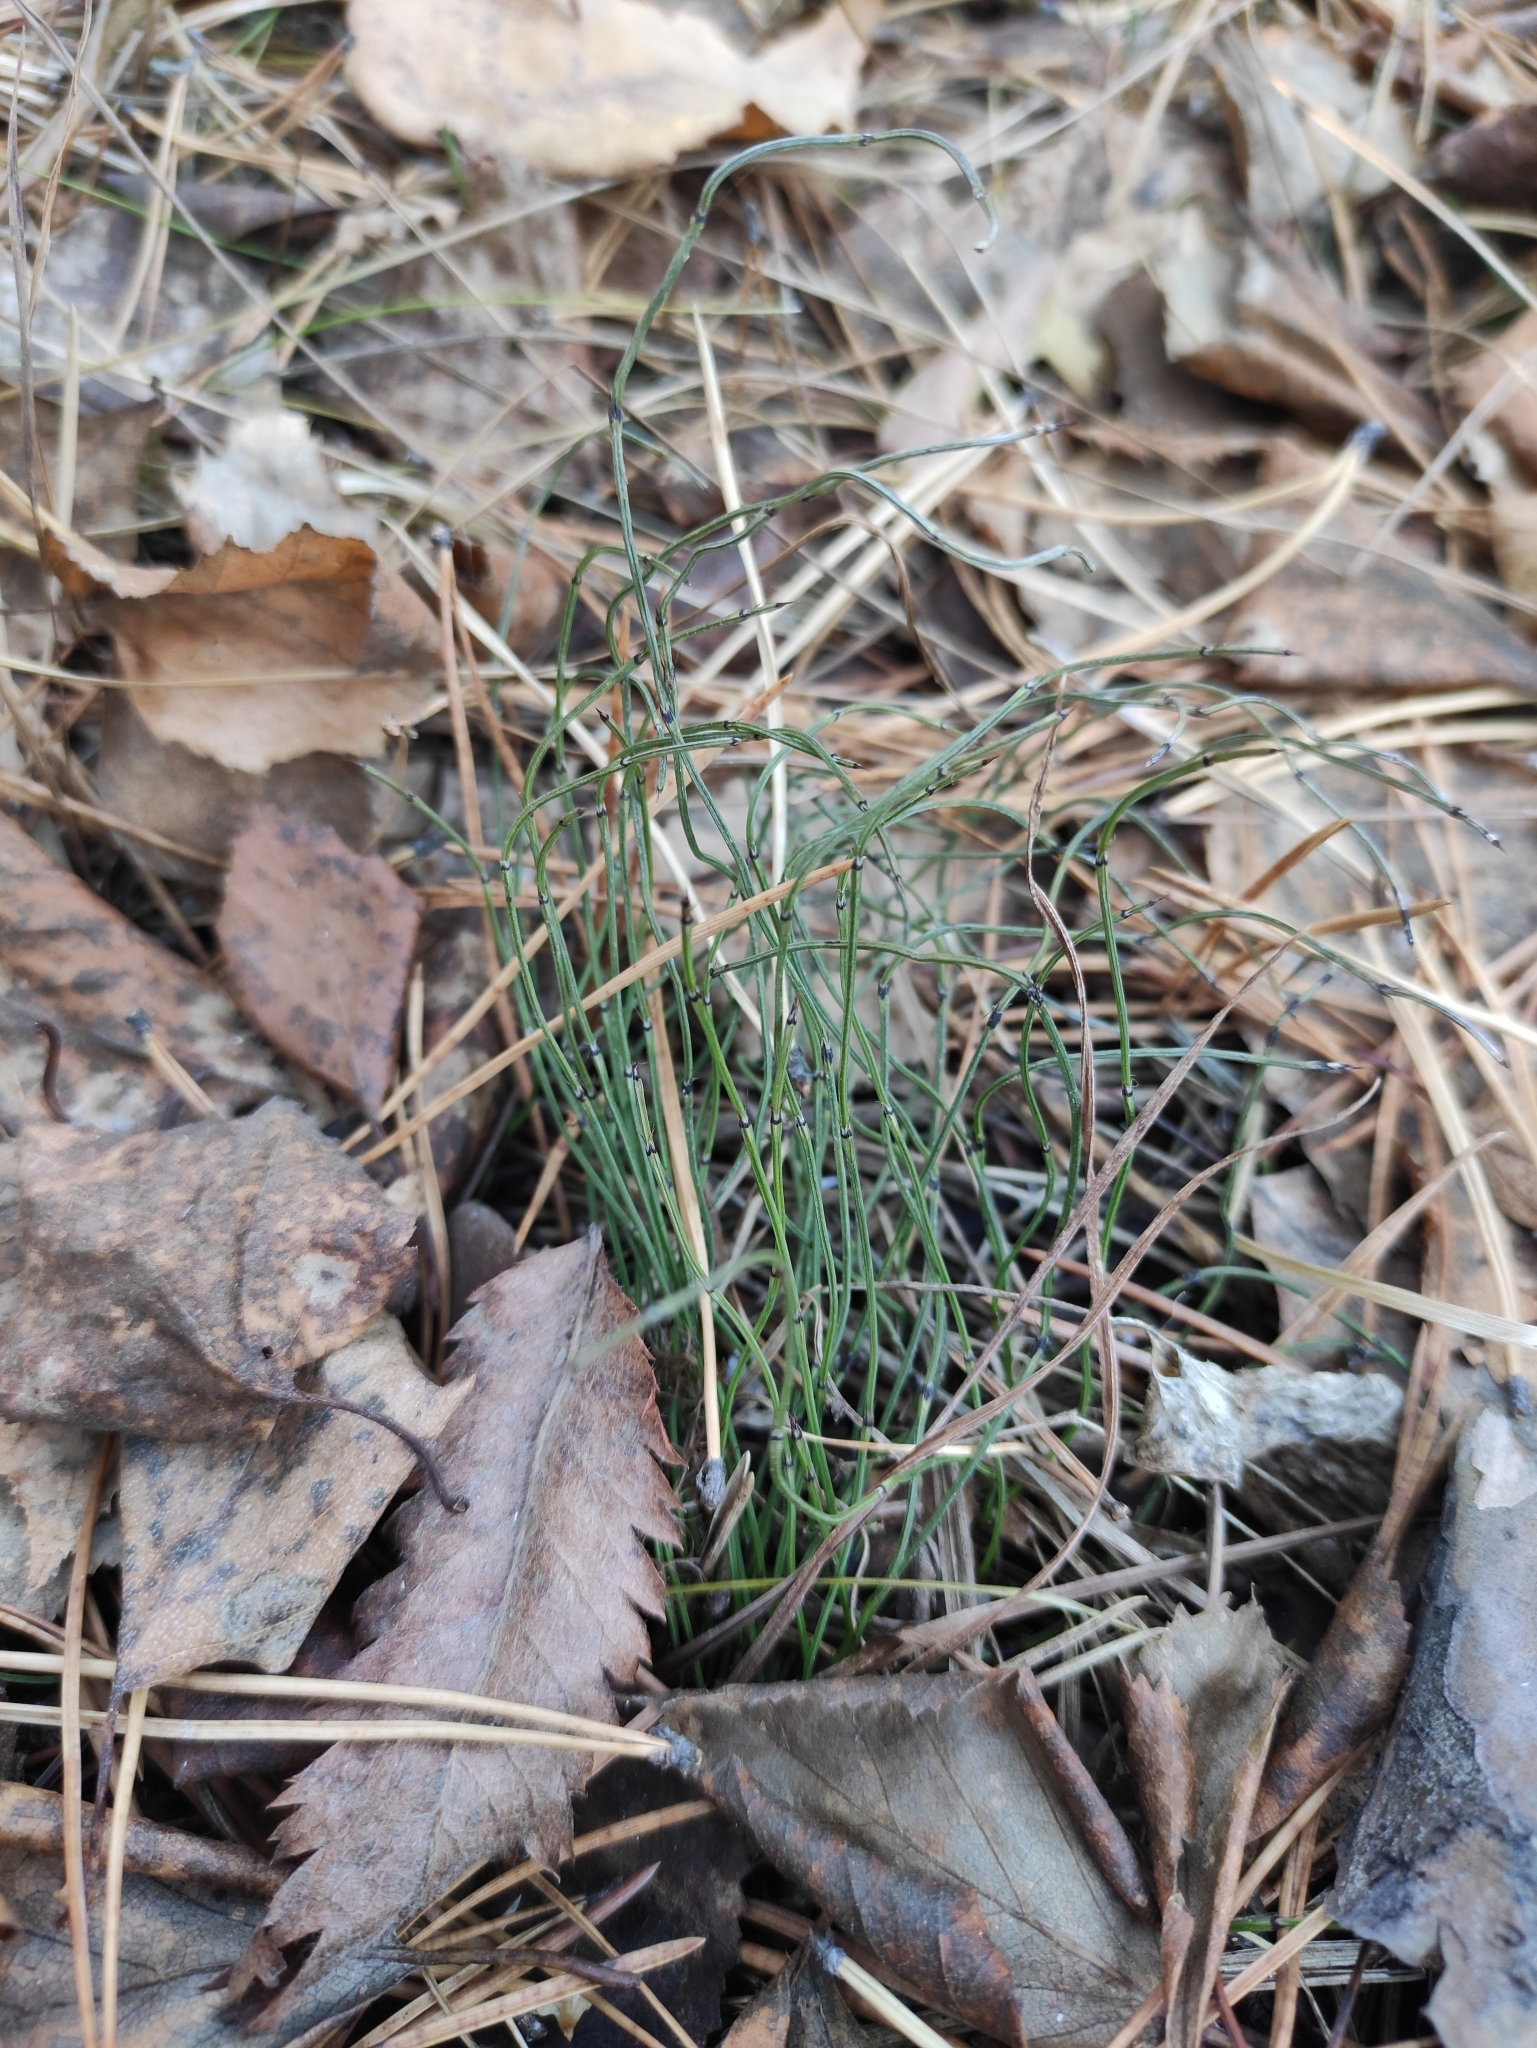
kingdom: Plantae
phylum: Tracheophyta
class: Polypodiopsida
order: Equisetales
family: Equisetaceae
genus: Equisetum
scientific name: Equisetum scirpoides
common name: Delicate horsetail
